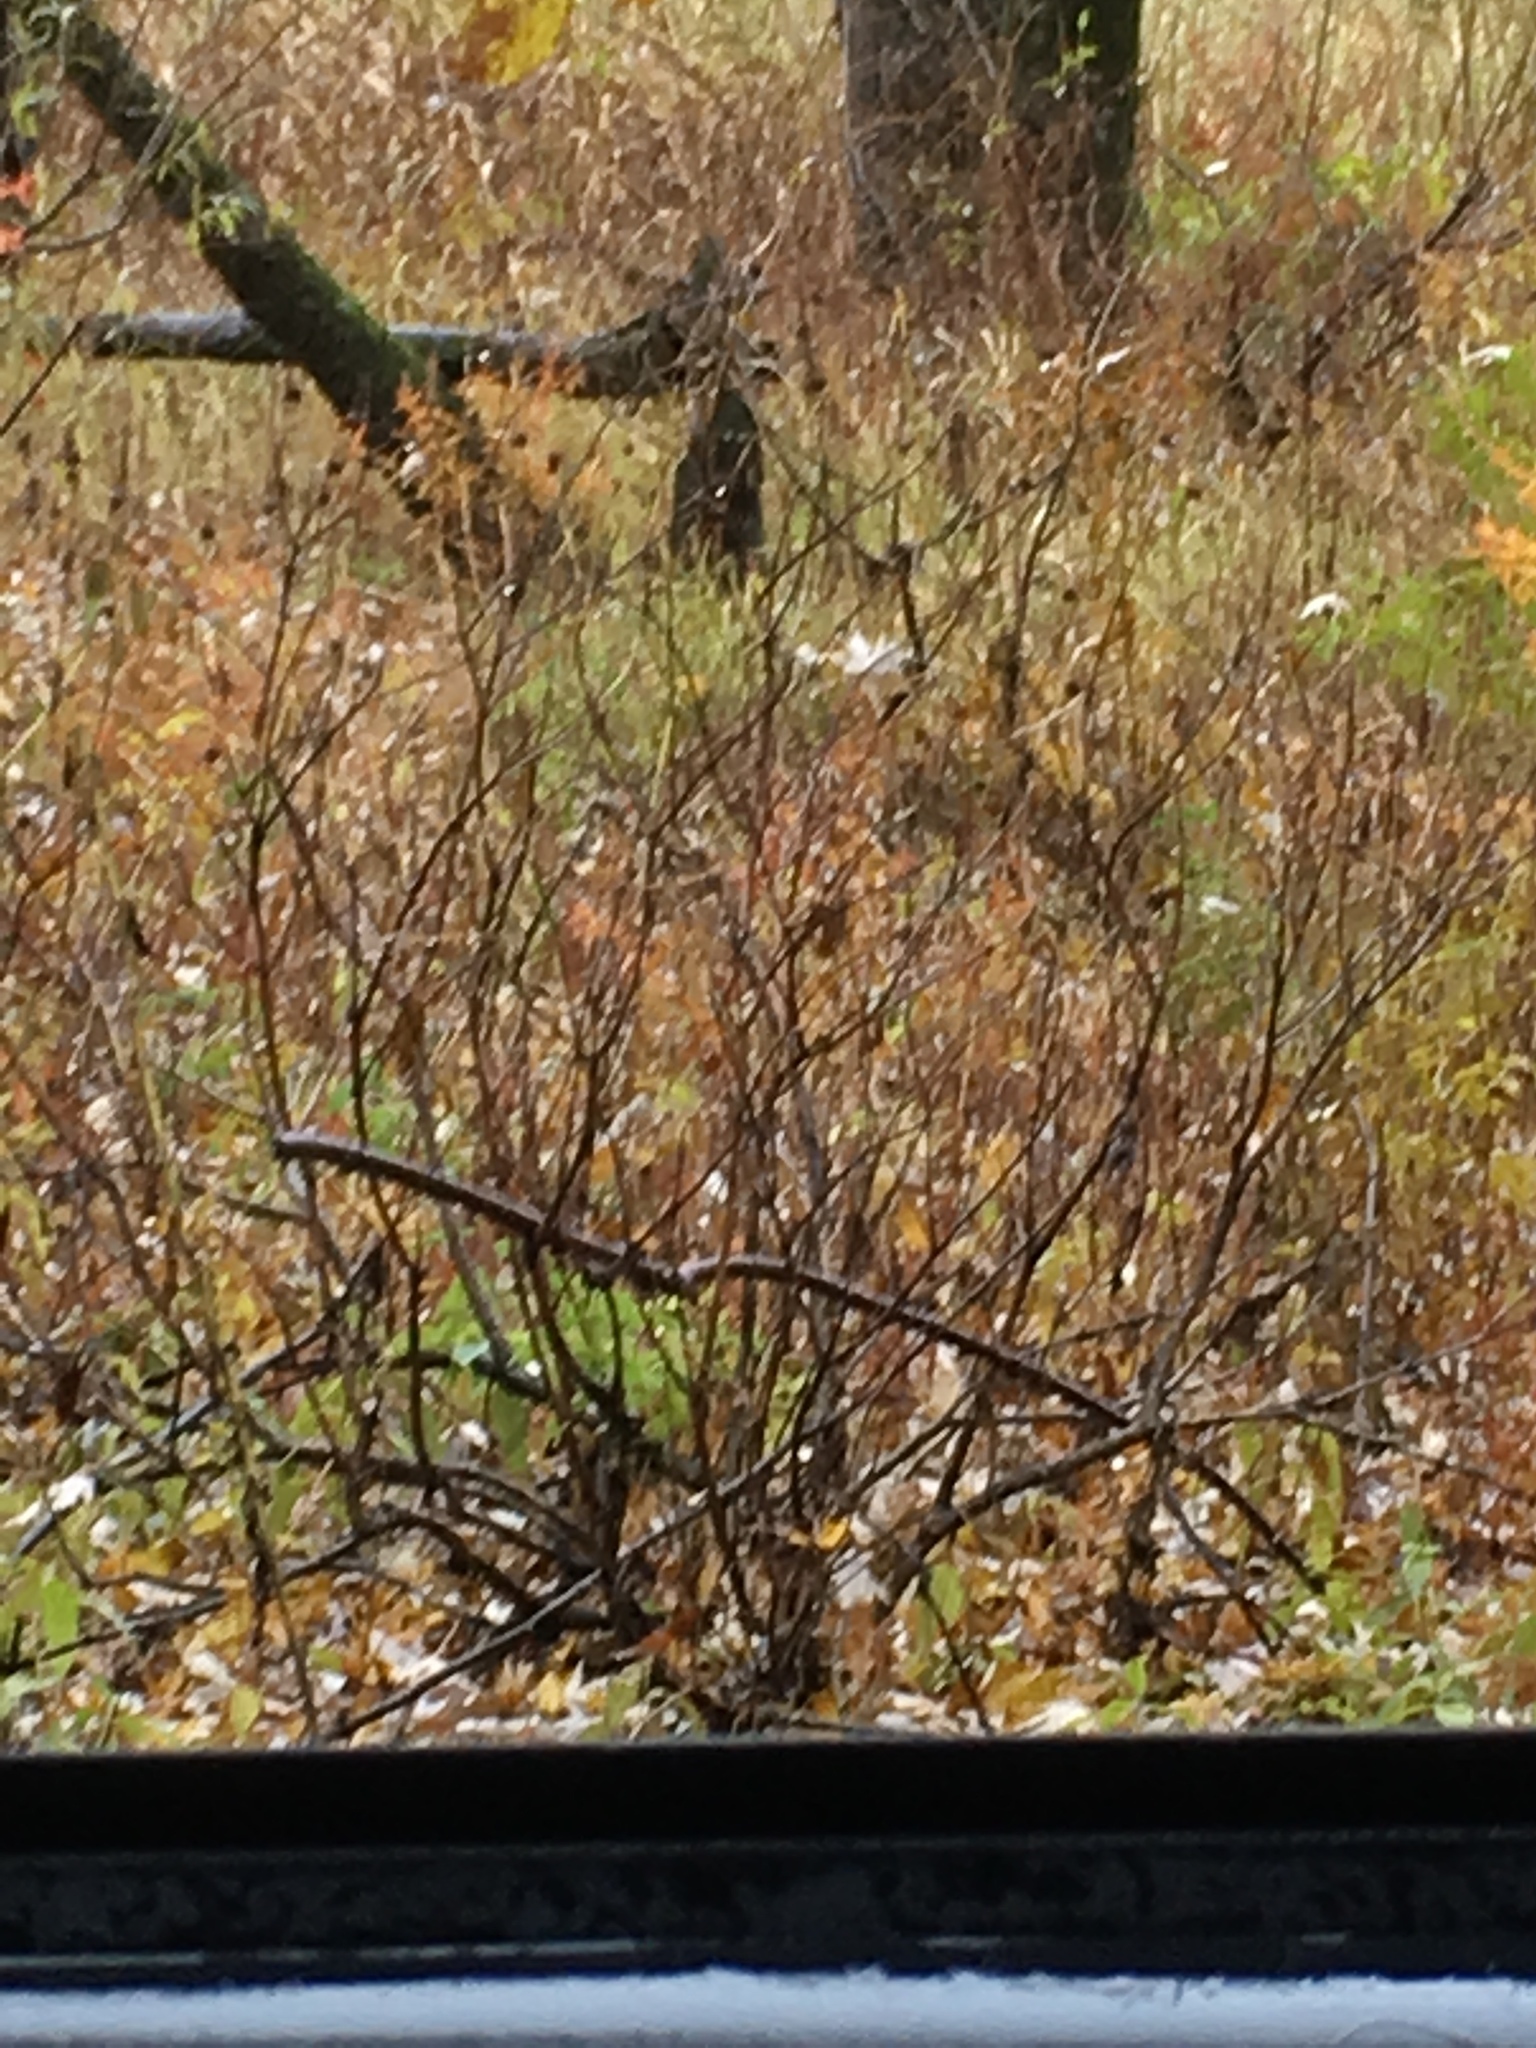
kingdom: Plantae
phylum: Tracheophyta
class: Magnoliopsida
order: Gentianales
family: Rubiaceae
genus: Cephalanthus
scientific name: Cephalanthus occidentalis
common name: Button-willow
